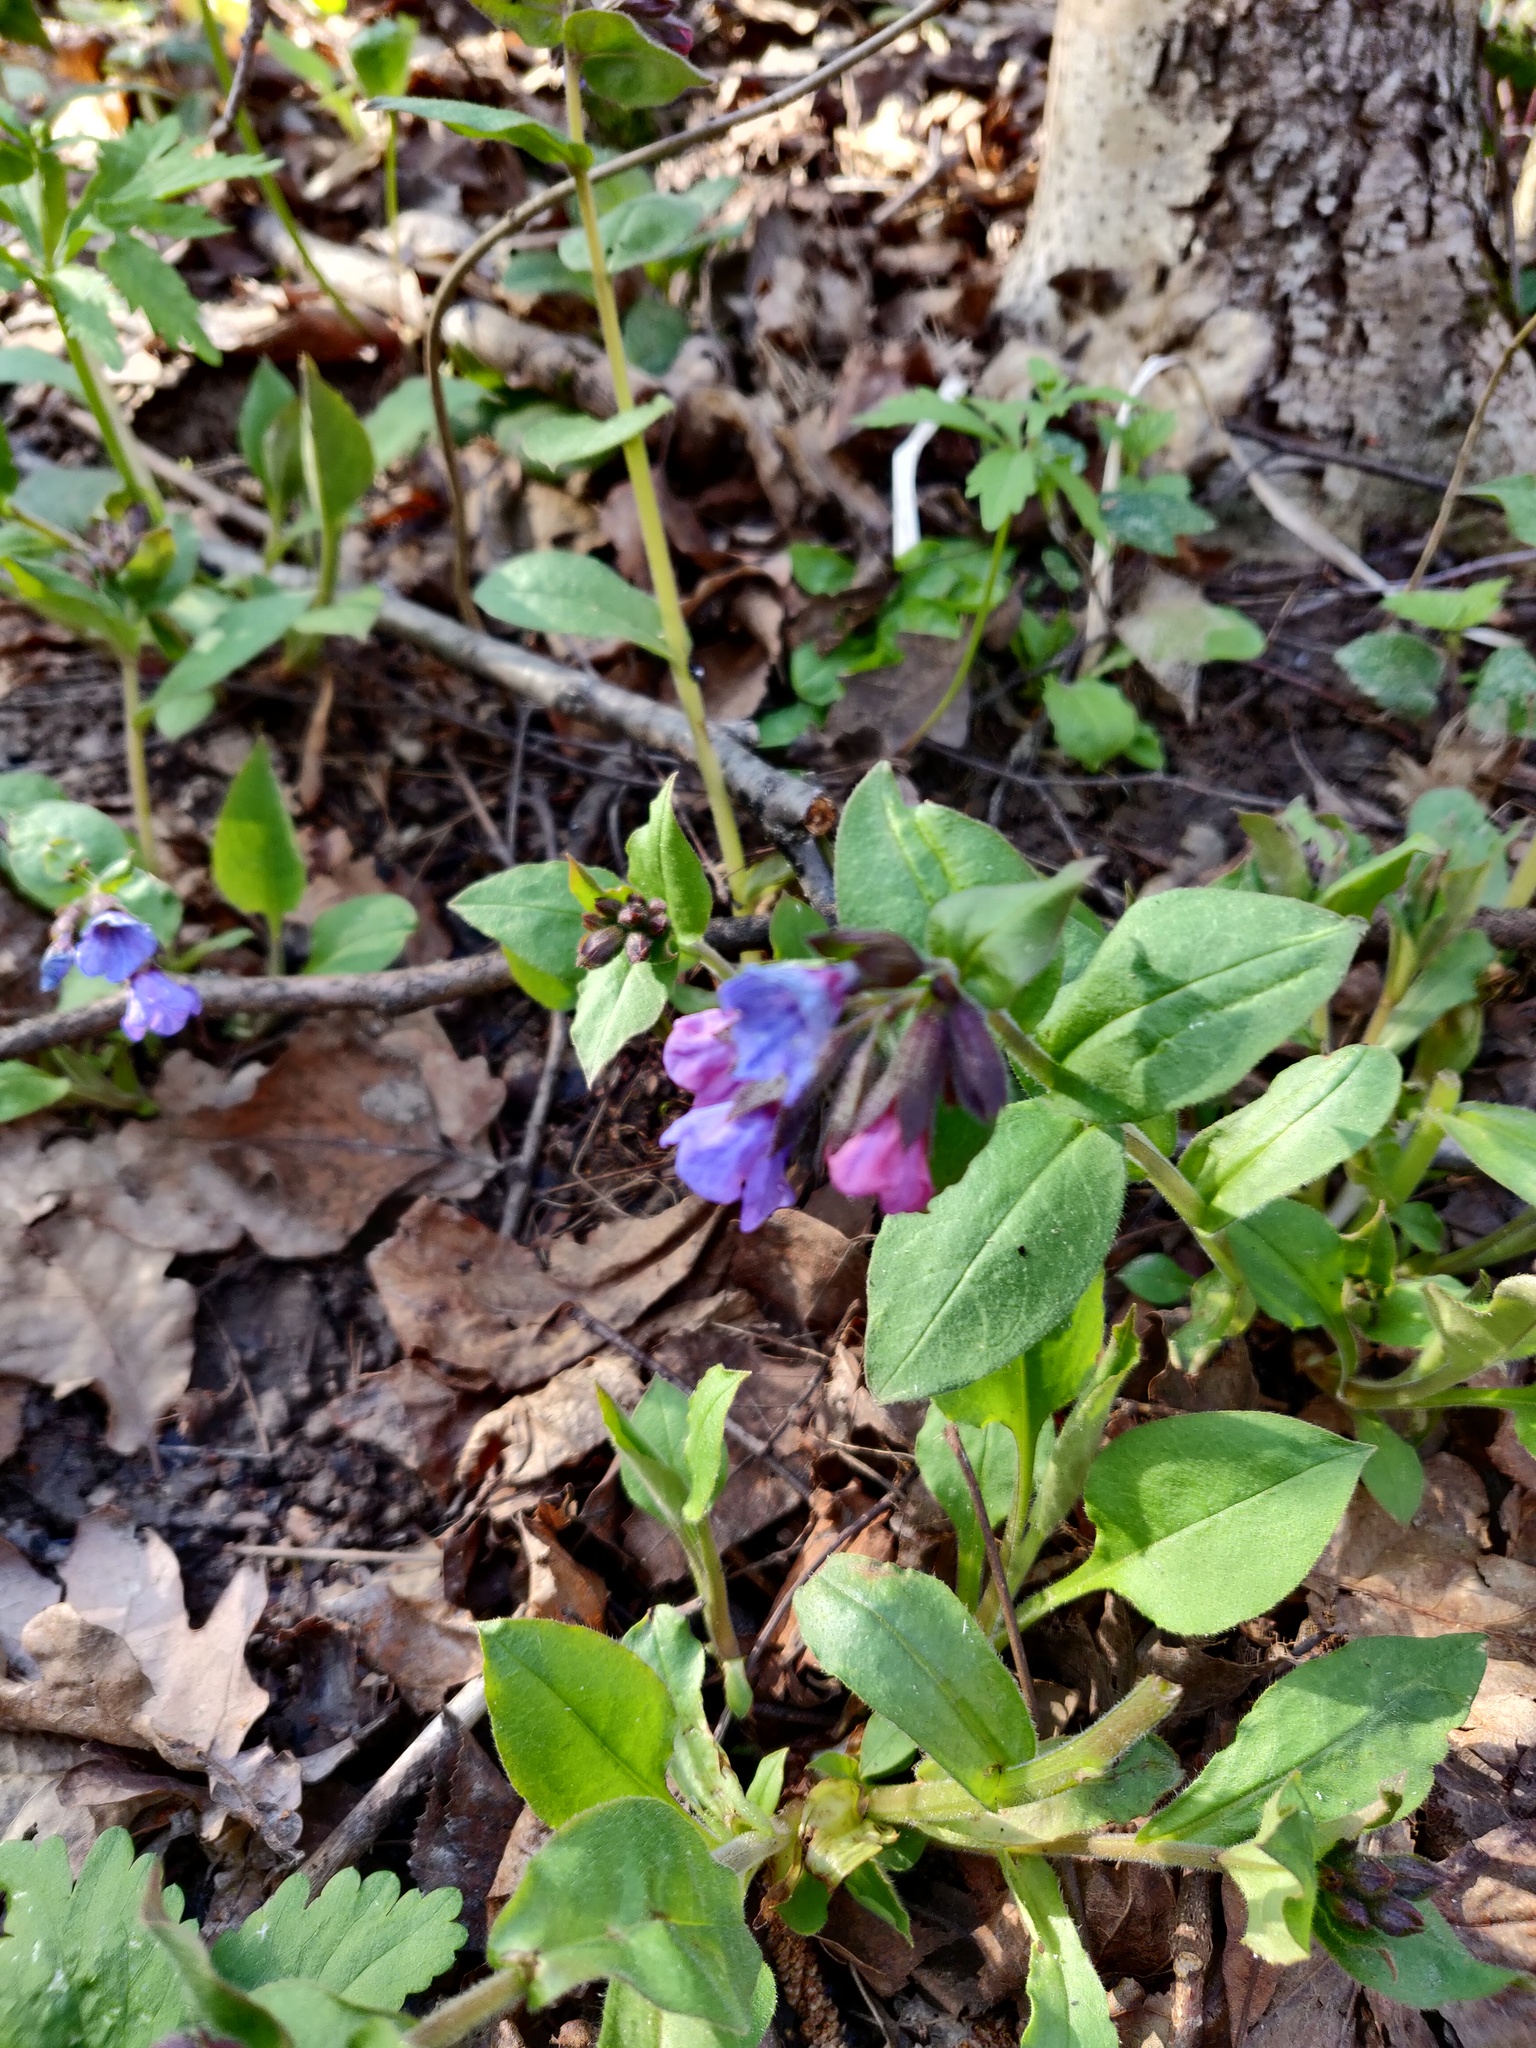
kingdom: Plantae
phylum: Tracheophyta
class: Magnoliopsida
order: Boraginales
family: Boraginaceae
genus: Pulmonaria
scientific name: Pulmonaria obscura
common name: Suffolk lungwort
